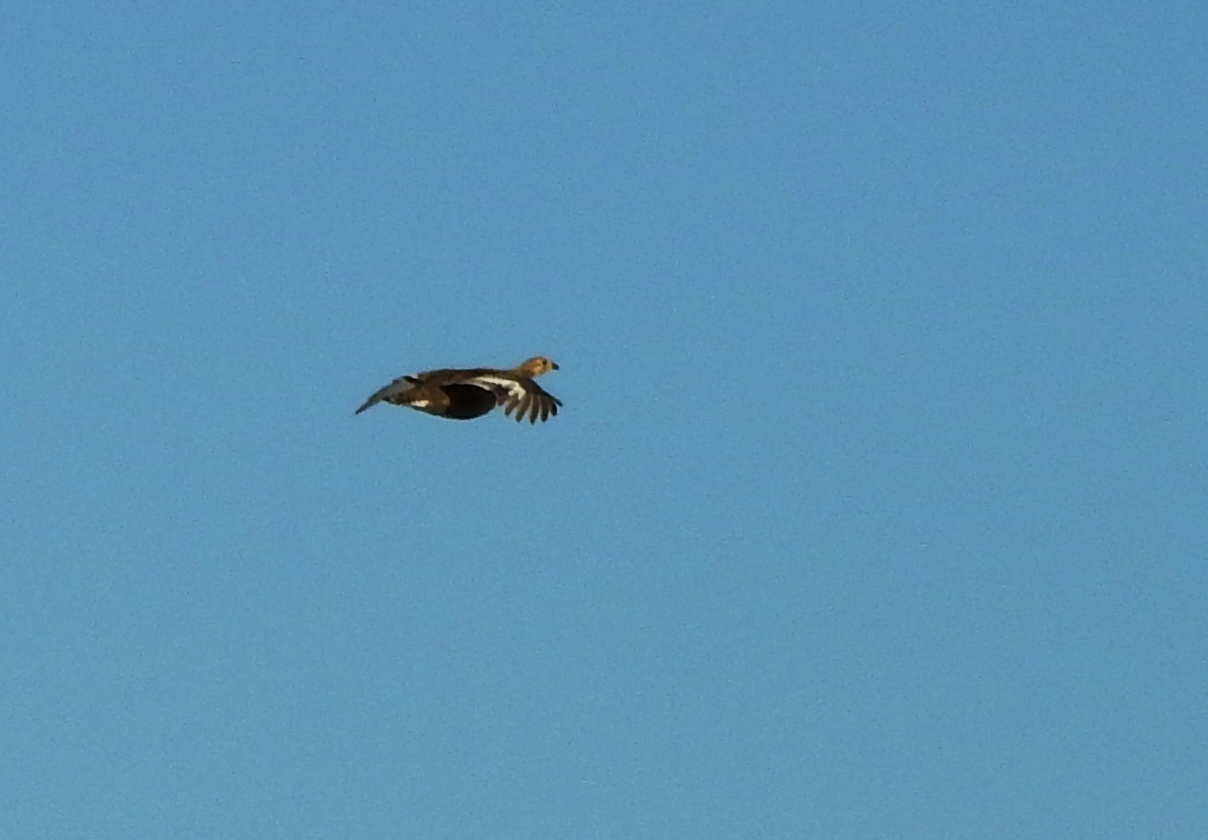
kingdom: Animalia
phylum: Chordata
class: Aves
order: Galliformes
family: Phasianidae
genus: Lyrurus
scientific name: Lyrurus tetrix
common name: Black grouse
